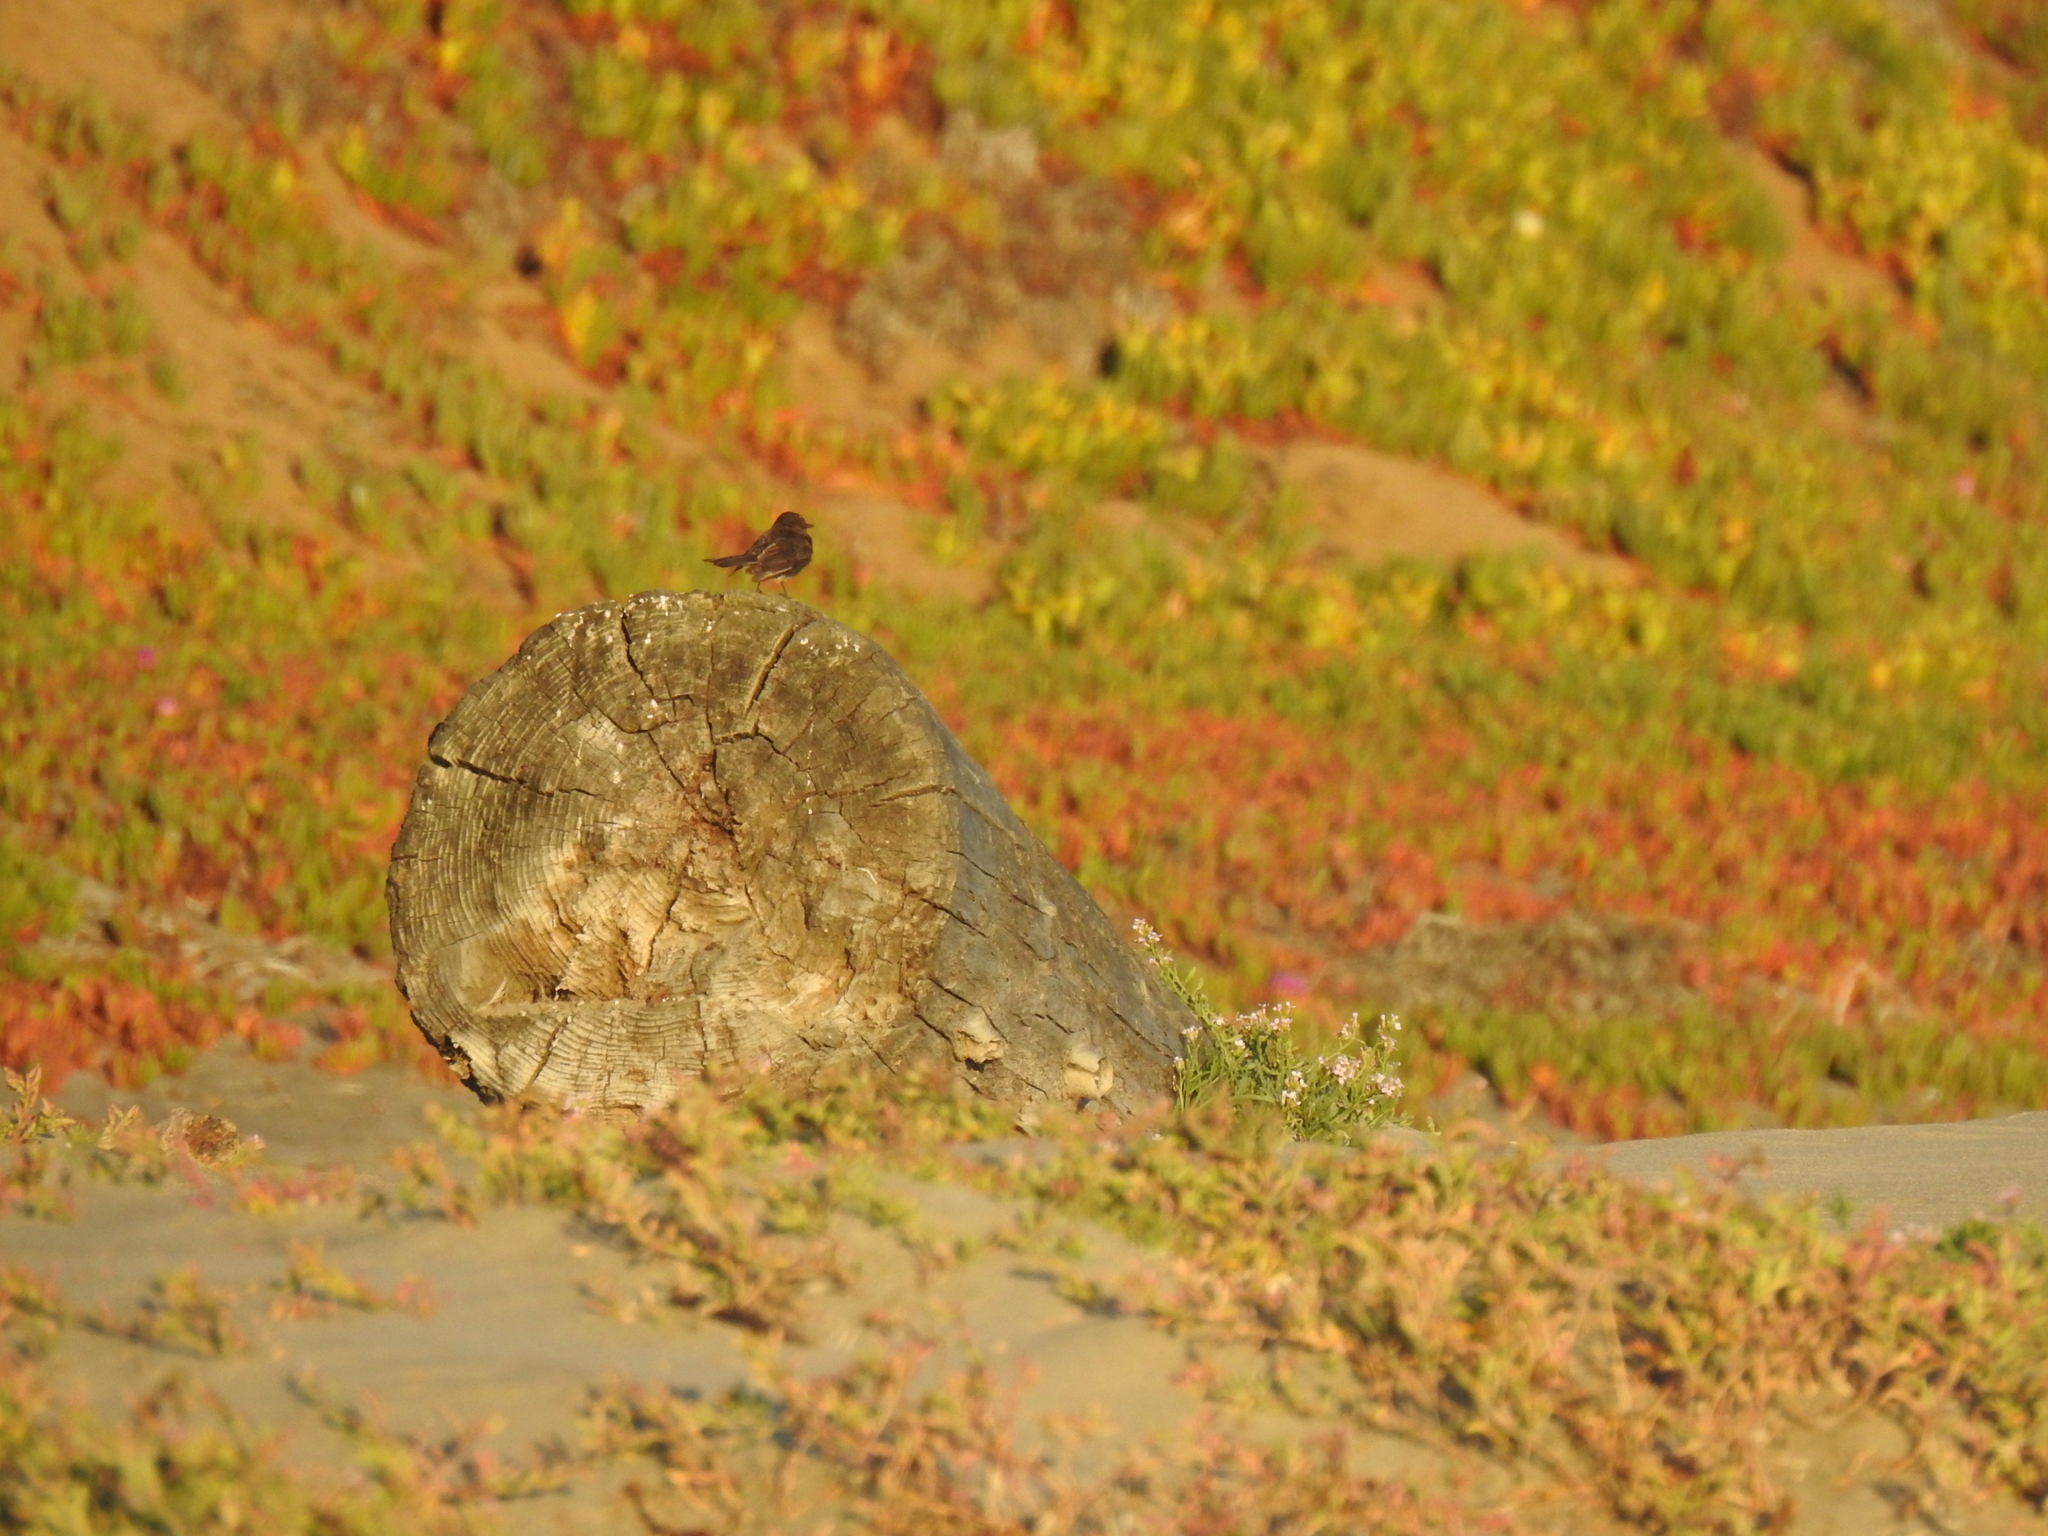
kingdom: Animalia
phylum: Chordata
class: Aves
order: Passeriformes
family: Tyrannidae
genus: Sayornis
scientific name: Sayornis nigricans
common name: Black phoebe
